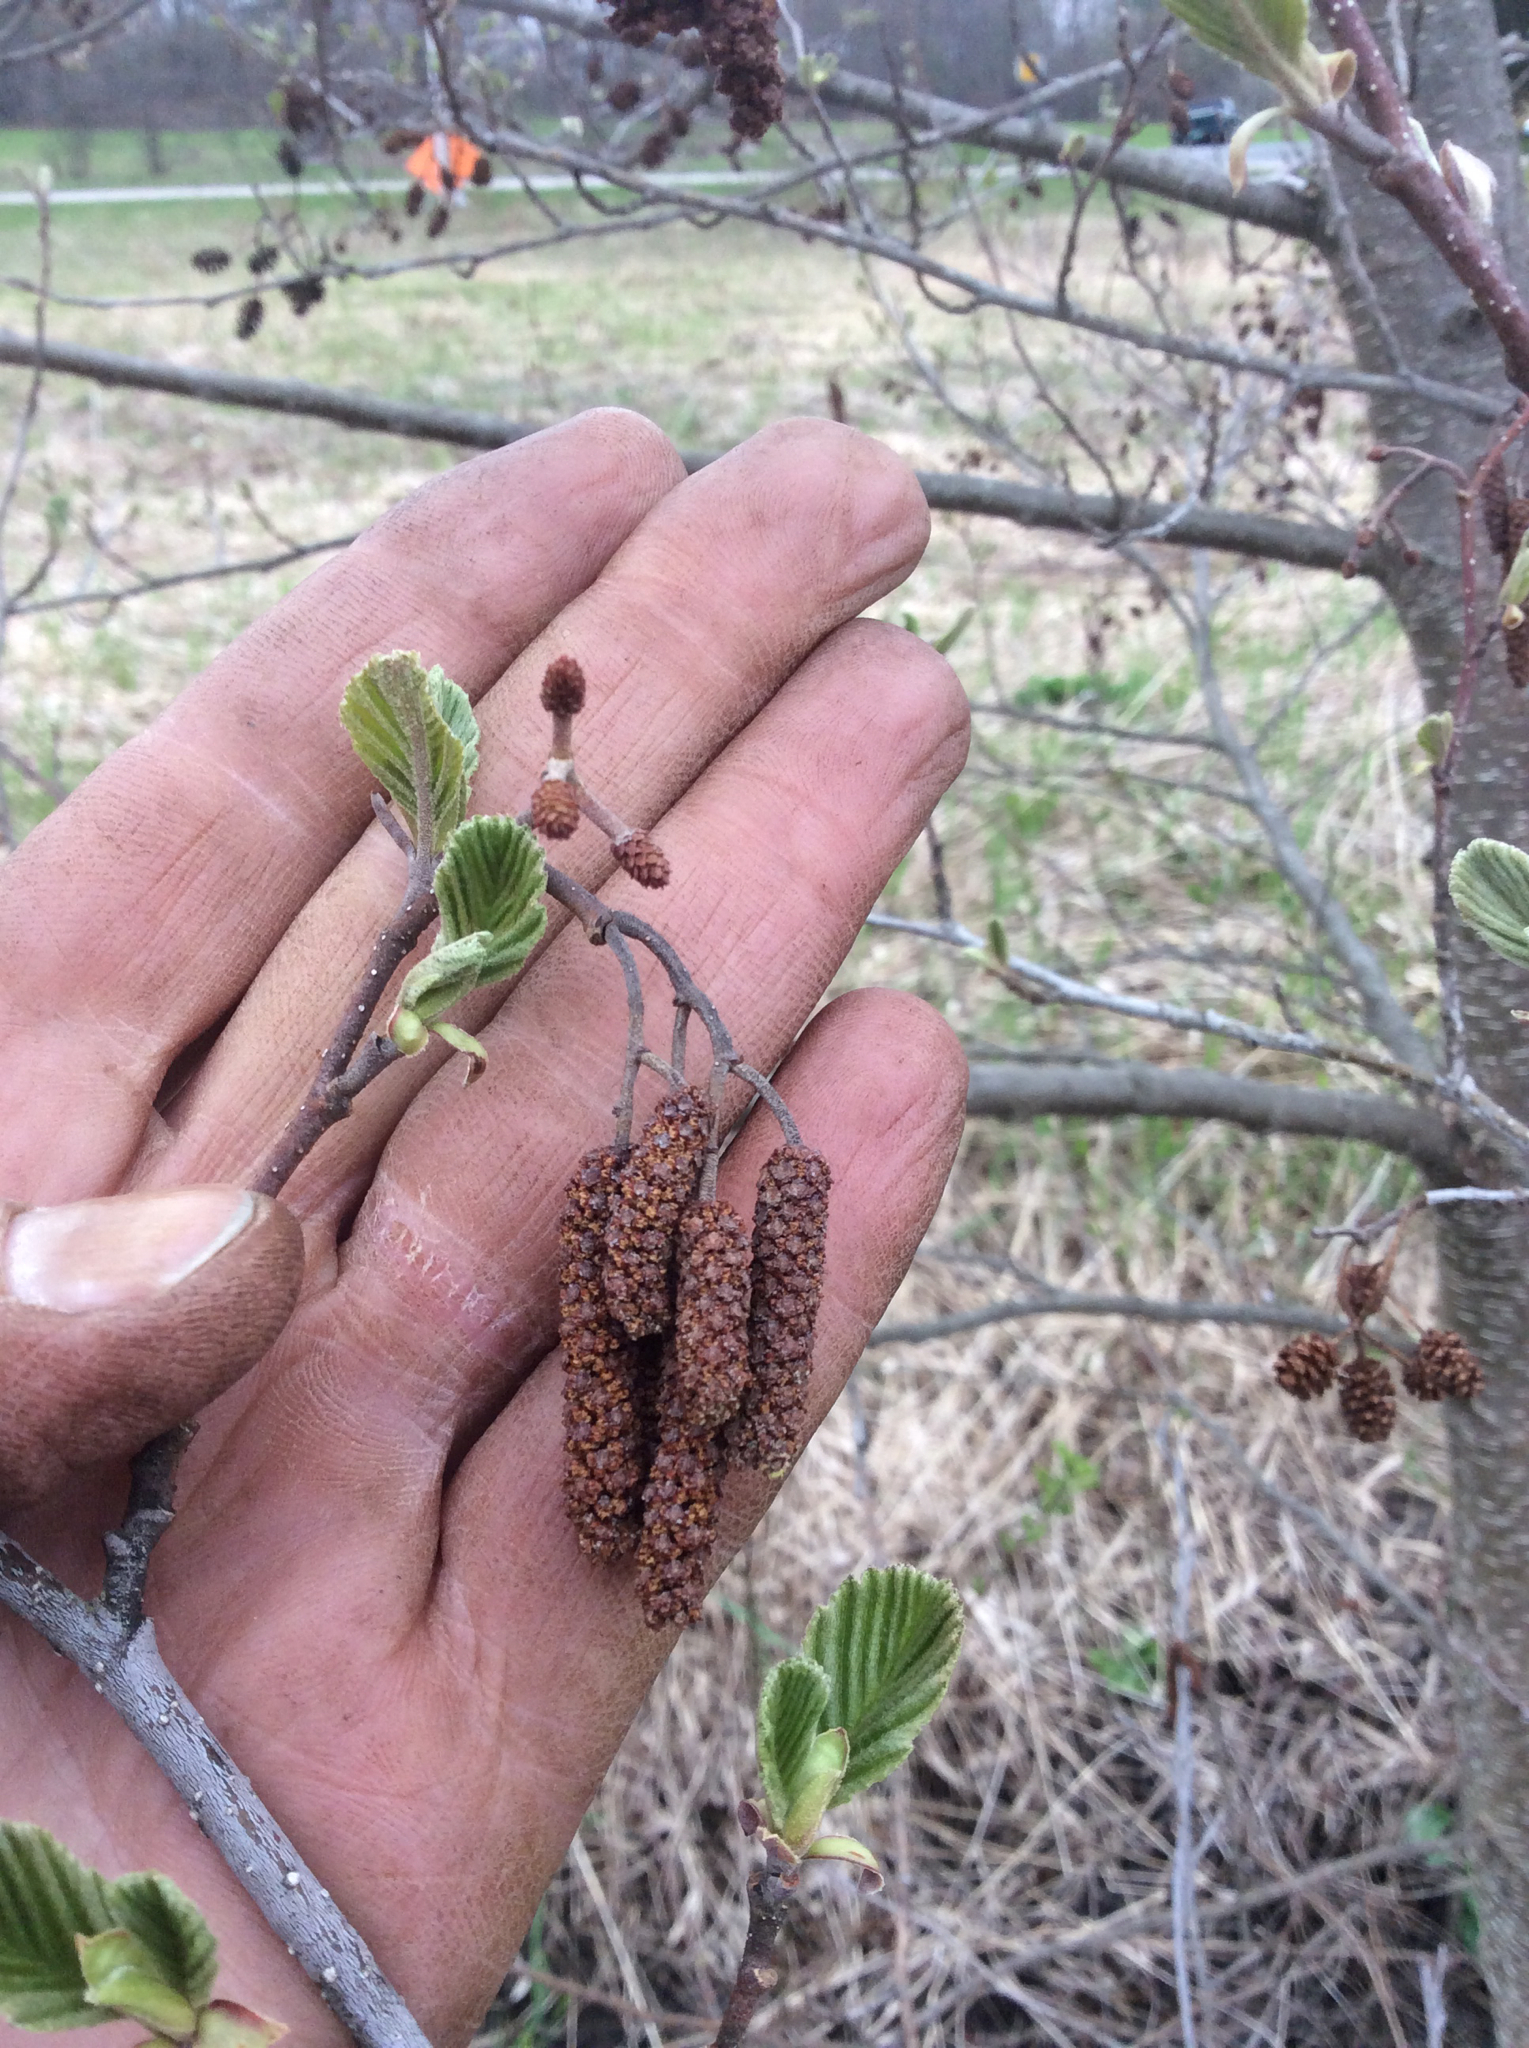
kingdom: Plantae
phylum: Tracheophyta
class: Magnoliopsida
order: Fagales
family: Betulaceae
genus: Alnus
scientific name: Alnus glutinosa
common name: Black alder
